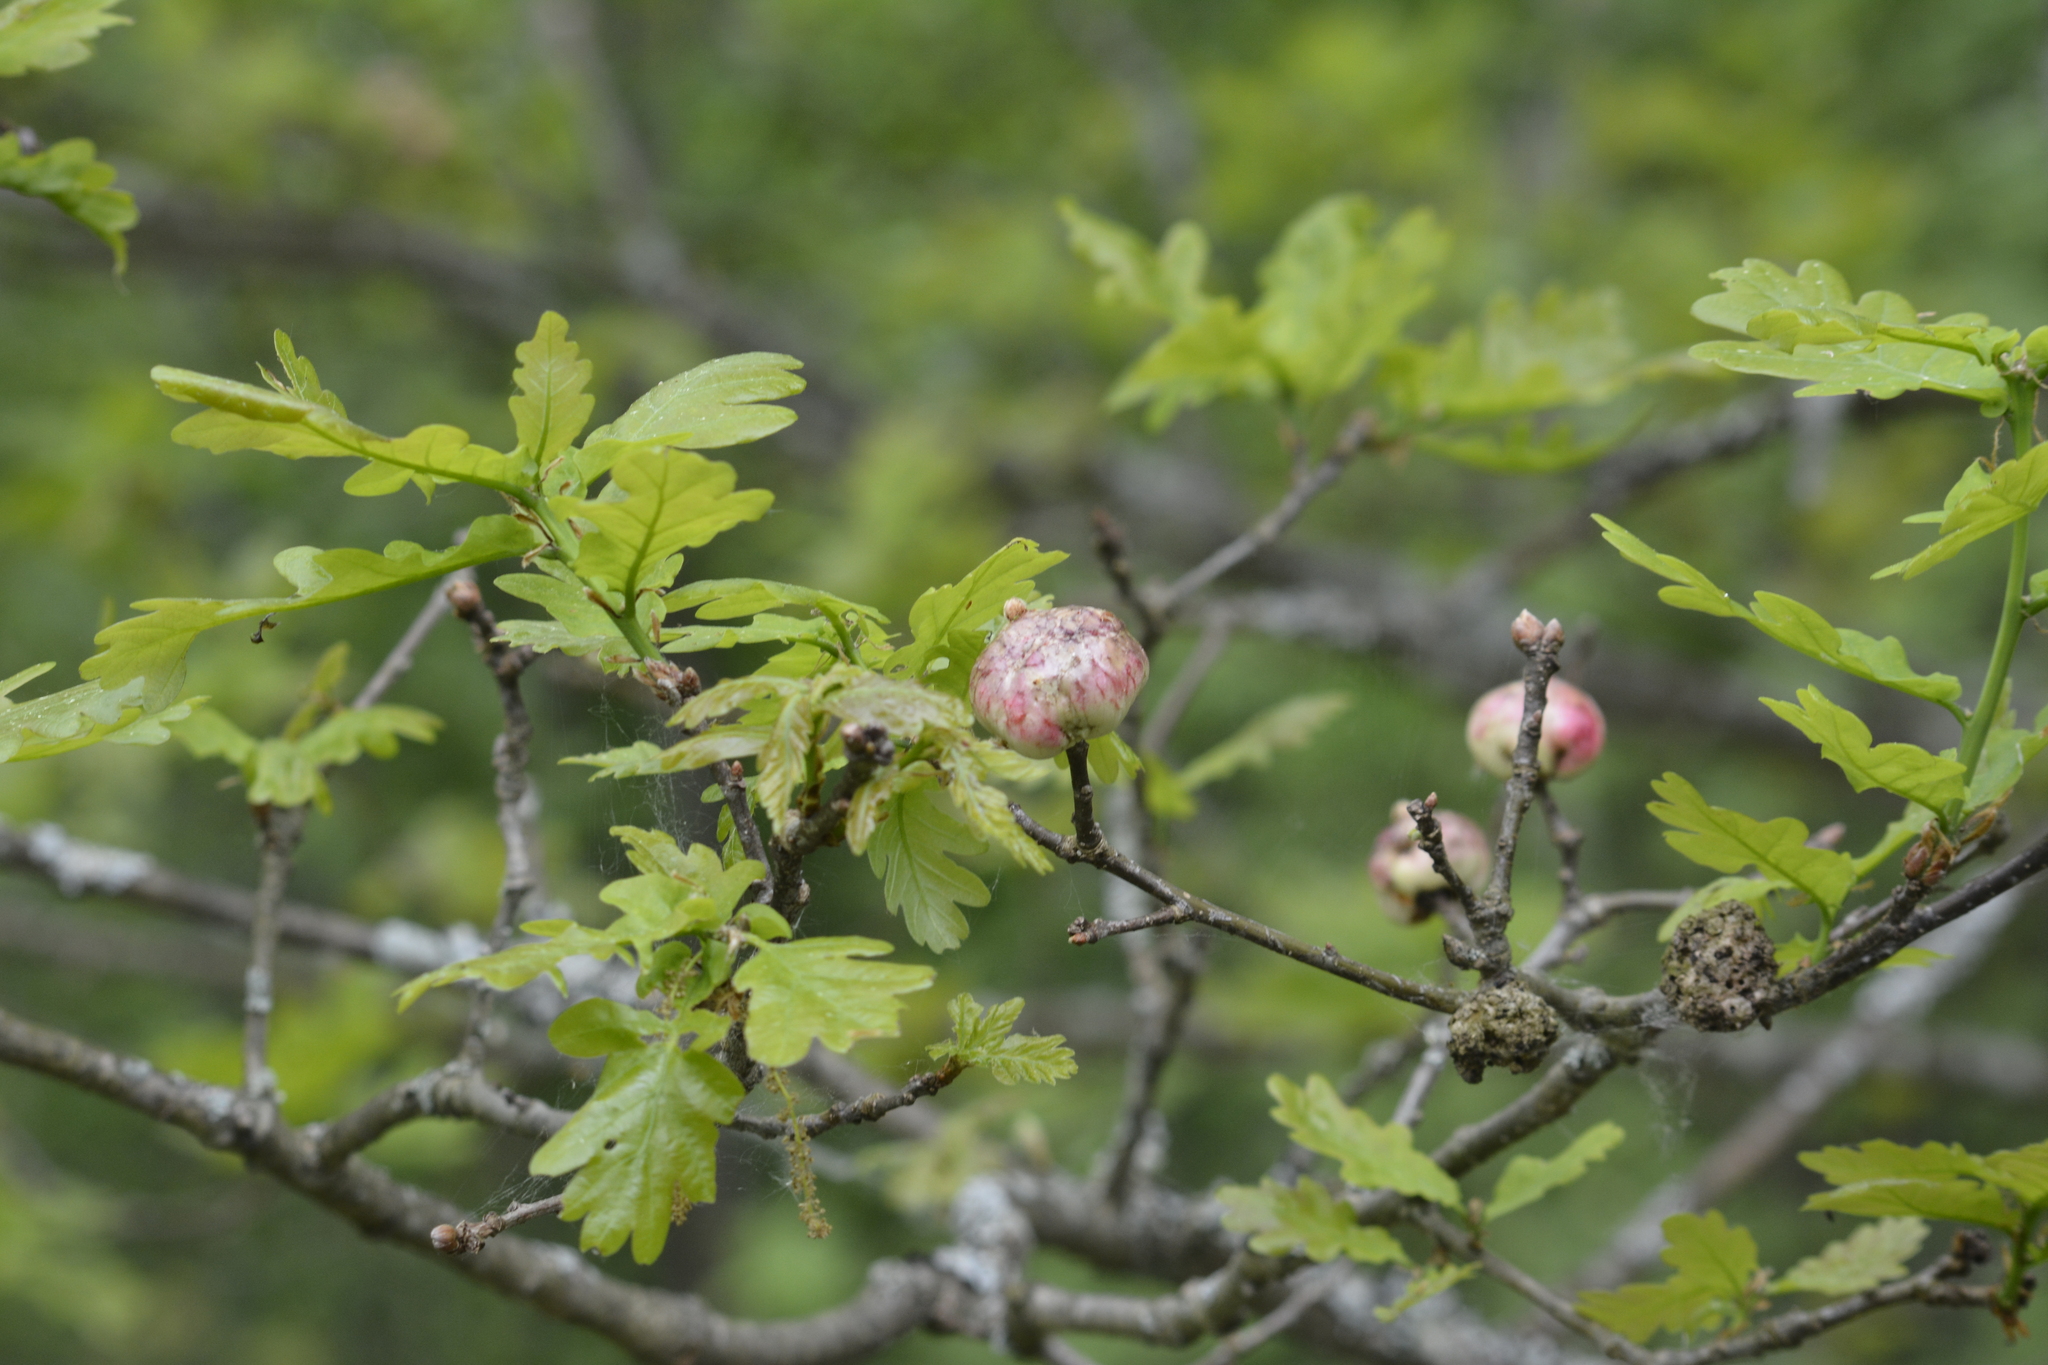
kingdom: Animalia
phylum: Arthropoda
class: Insecta
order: Hymenoptera
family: Cynipidae
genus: Biorhiza
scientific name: Biorhiza pallida
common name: Oak apple
